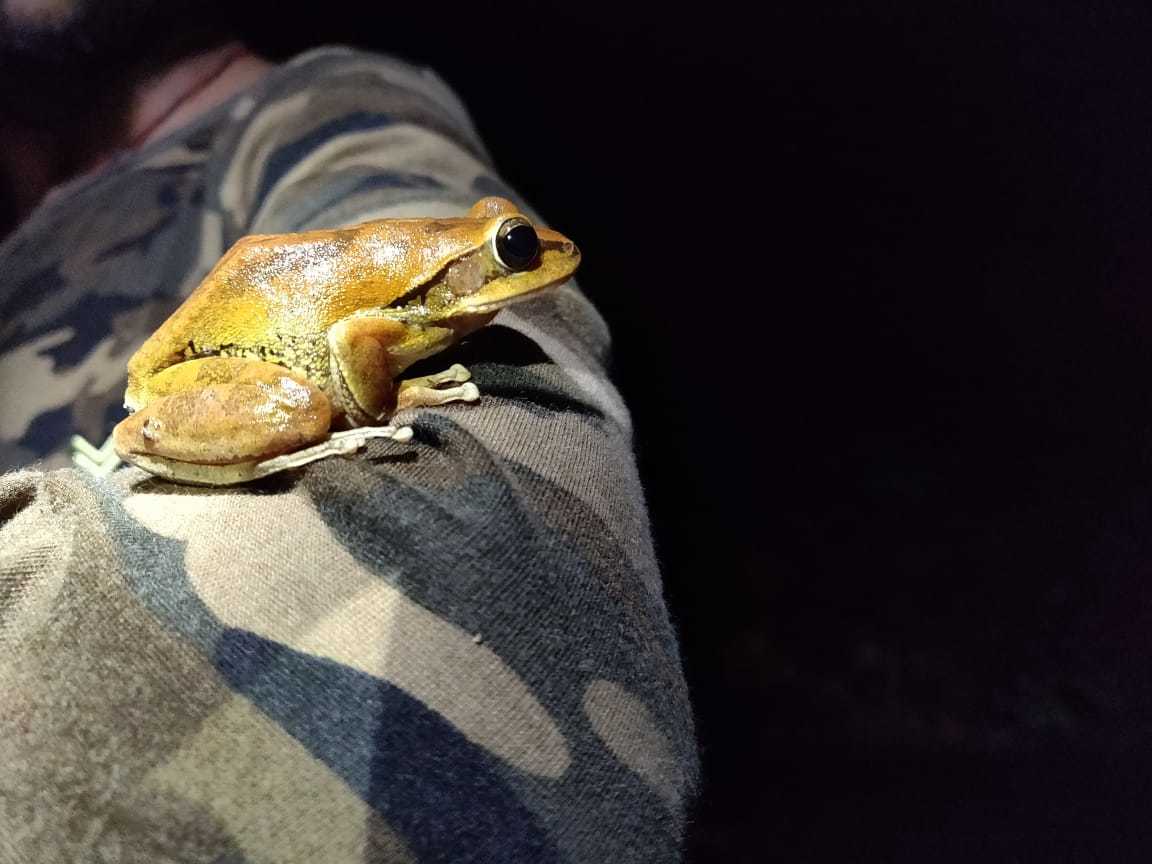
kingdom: Animalia
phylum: Chordata
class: Amphibia
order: Anura
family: Rhacophoridae
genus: Polypedates
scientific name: Polypedates maculatus
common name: Himalayan tree frog
